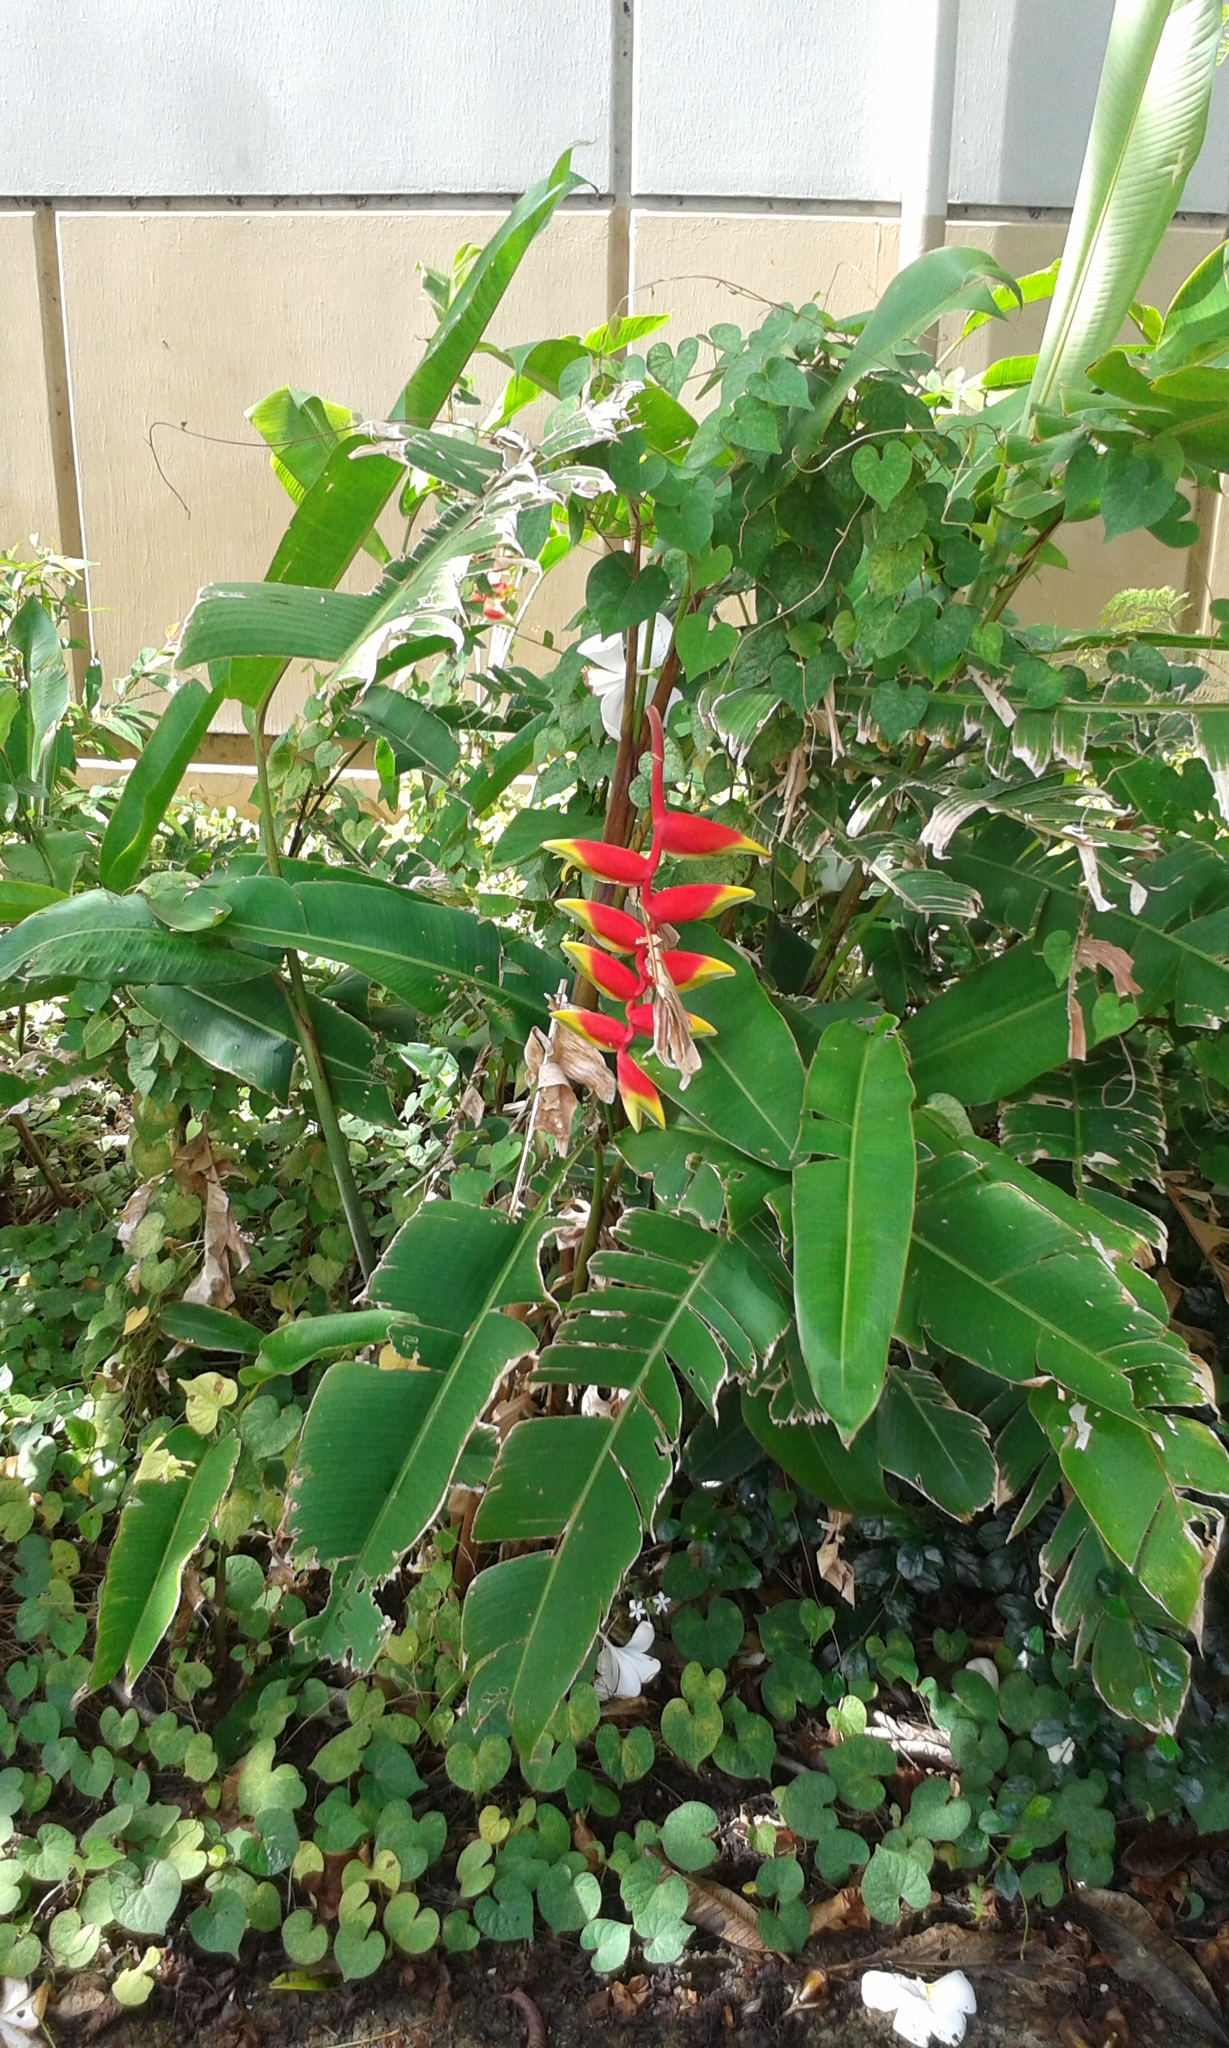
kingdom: Plantae
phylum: Tracheophyta
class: Liliopsida
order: Zingiberales
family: Heliconiaceae
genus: Heliconia
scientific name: Heliconia rostrata
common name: False bird of paradise
